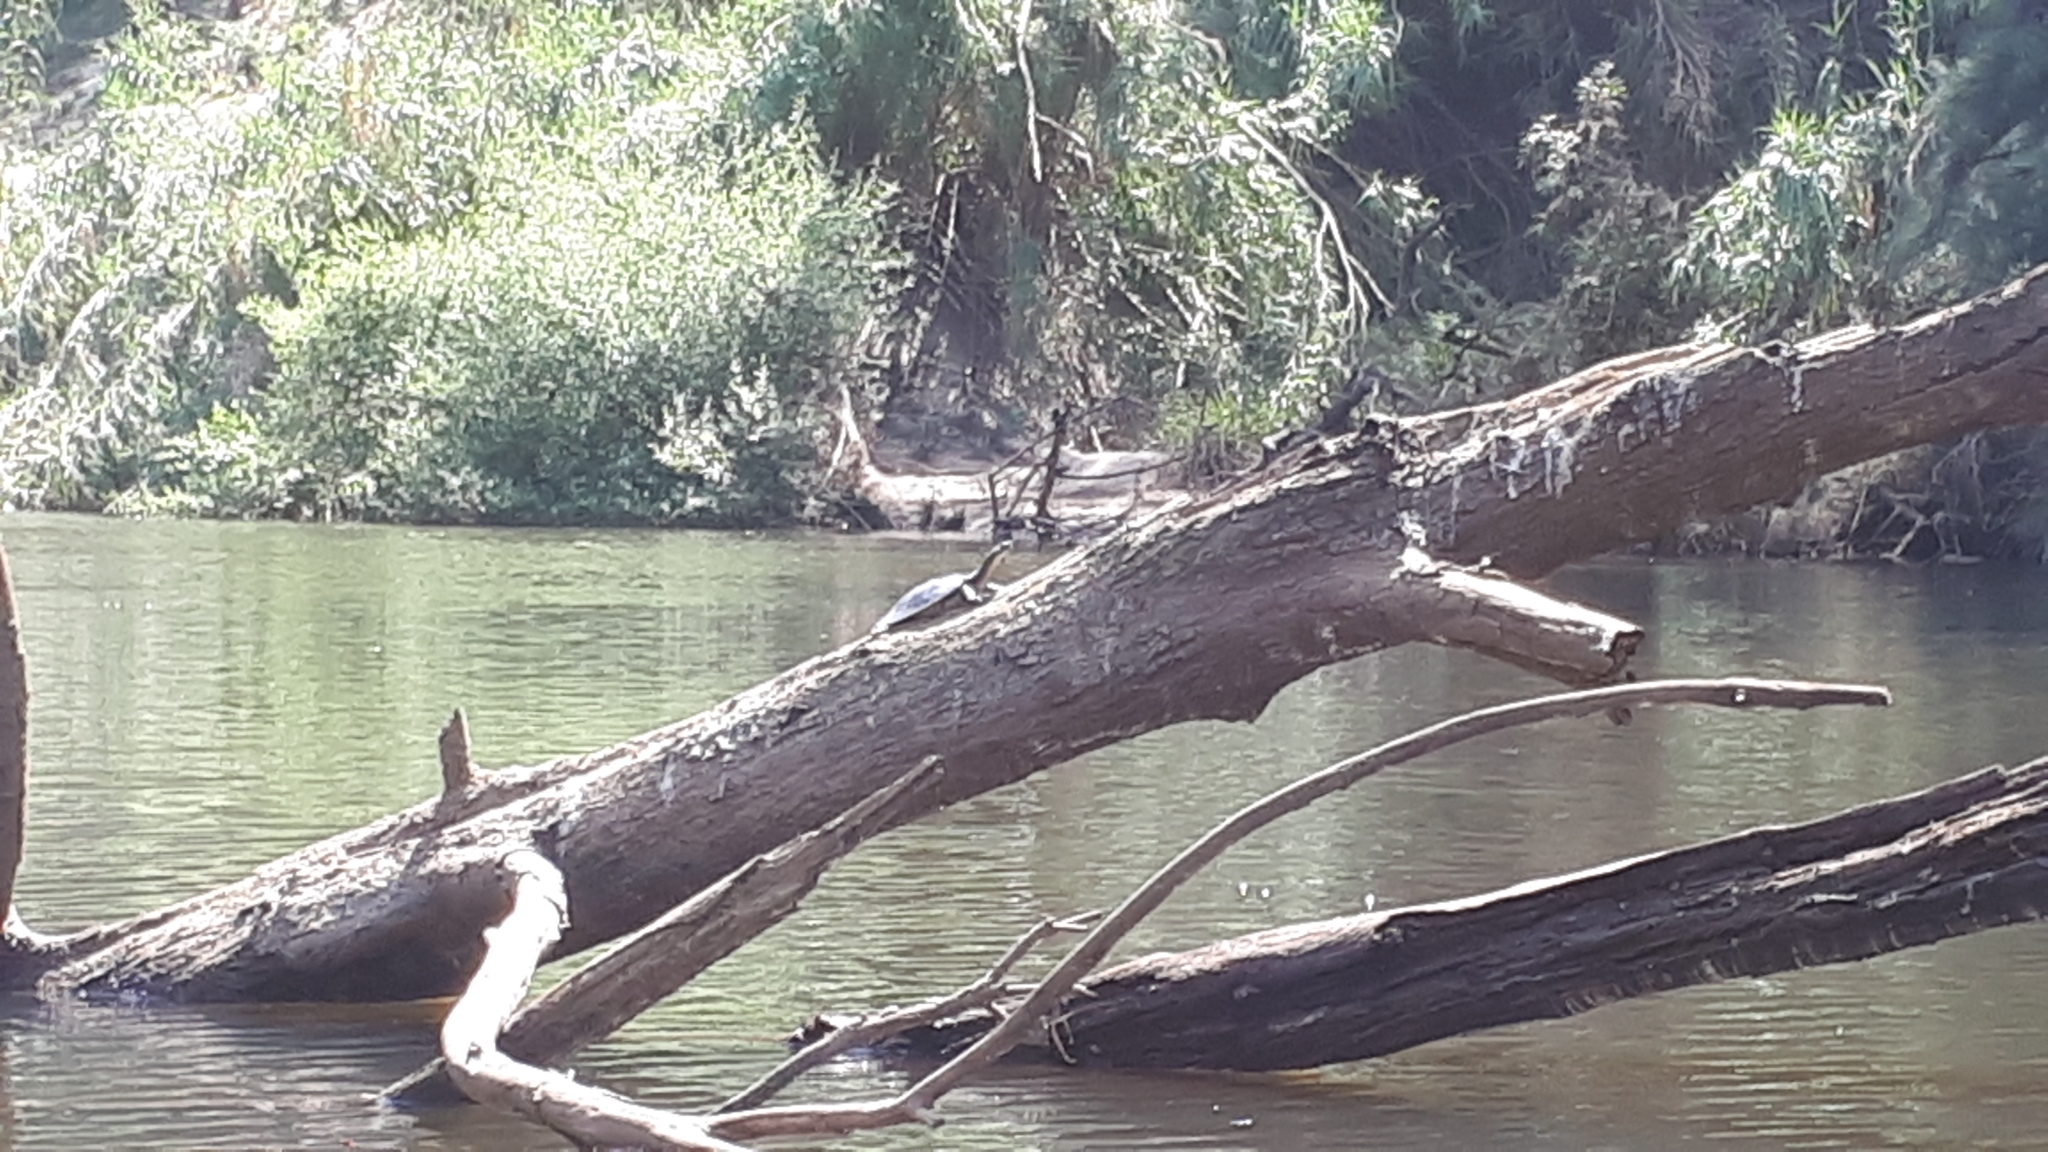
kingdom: Animalia
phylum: Chordata
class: Testudines
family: Chelidae
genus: Emydura
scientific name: Emydura macquarii
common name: Murray river turtle
